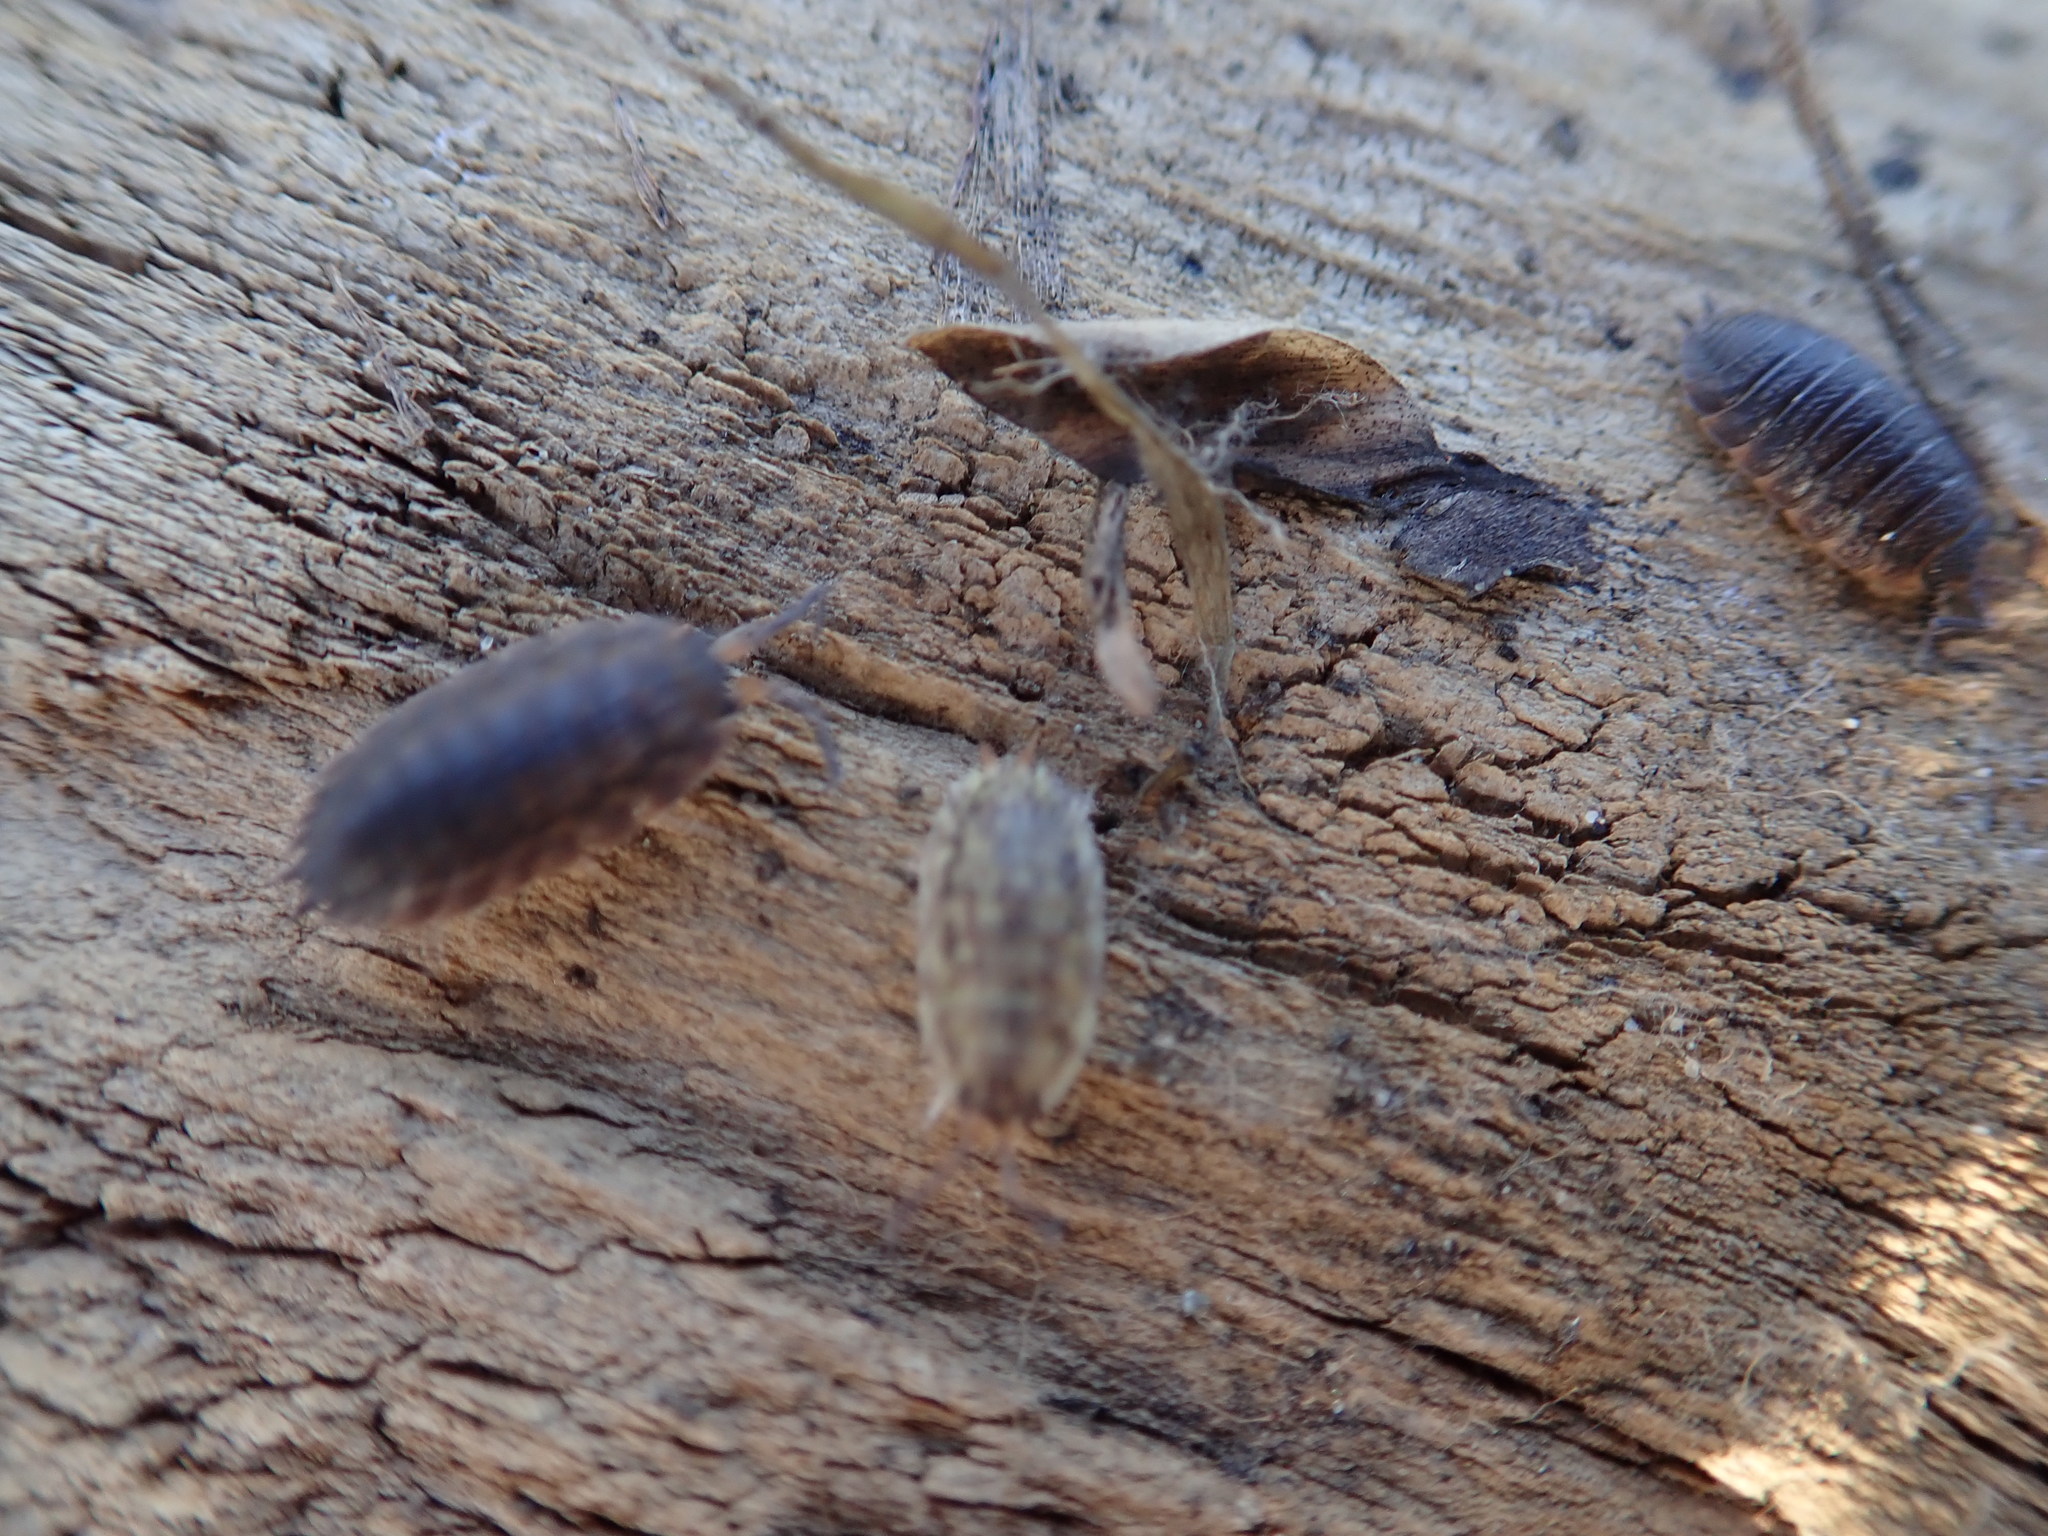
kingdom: Animalia
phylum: Arthropoda
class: Malacostraca
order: Isopoda
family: Porcellionidae
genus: Porcellio
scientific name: Porcellio scaber
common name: Common rough woodlouse
